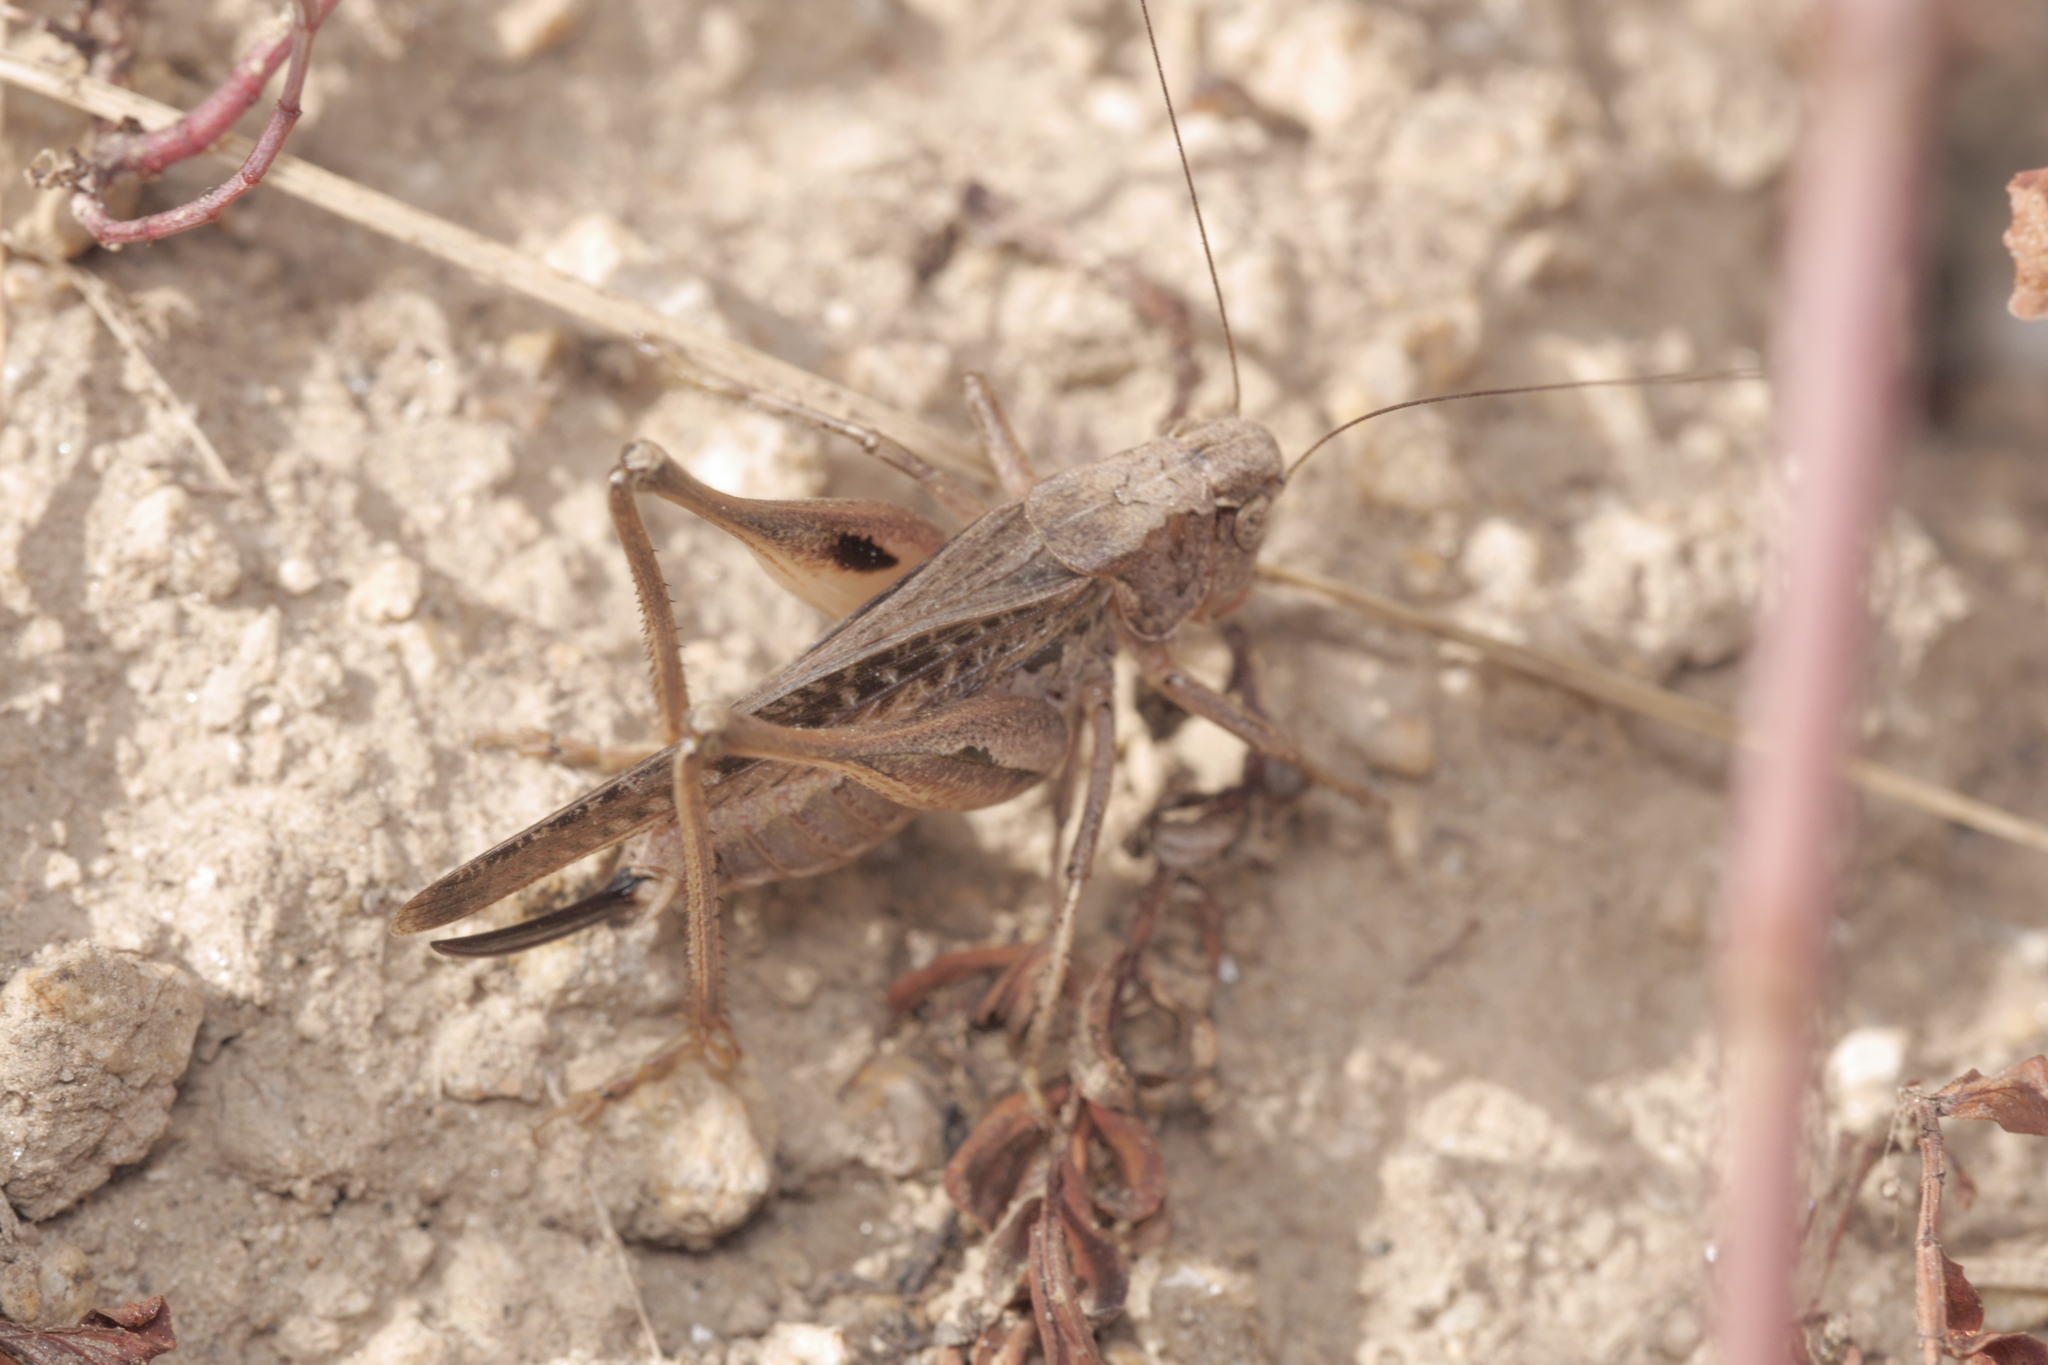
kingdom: Animalia
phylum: Arthropoda
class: Insecta
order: Orthoptera
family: Tettigoniidae
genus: Platycleis
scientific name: Platycleis albopunctata
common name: Grey bush-cricket
